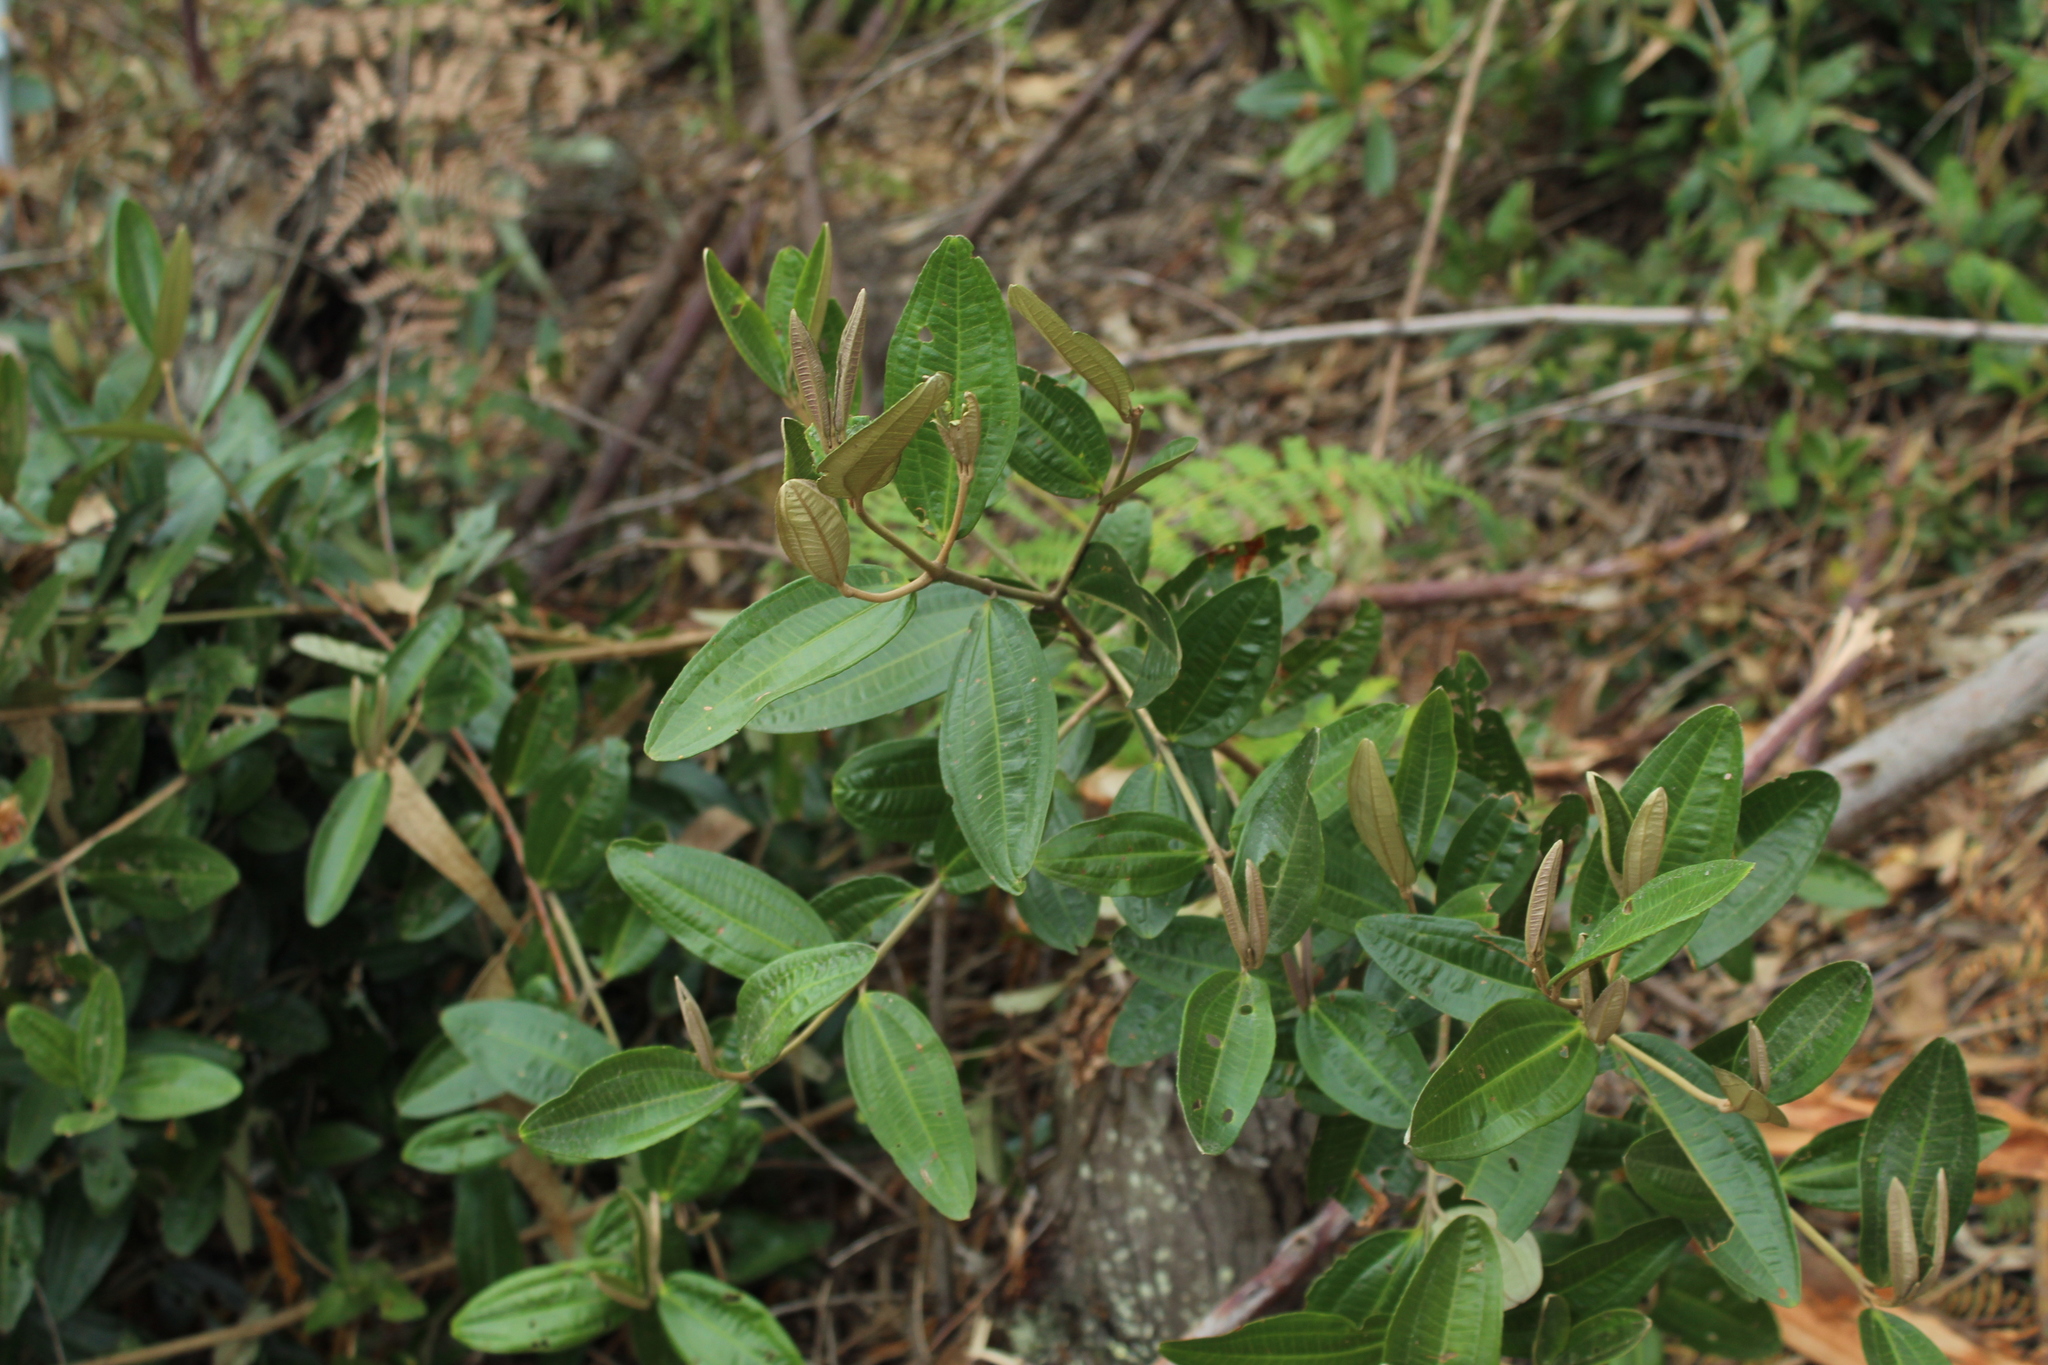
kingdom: Plantae
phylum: Tracheophyta
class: Magnoliopsida
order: Myrtales
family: Melastomataceae
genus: Miconia
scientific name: Miconia squamulosa
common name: Squamulose maya
